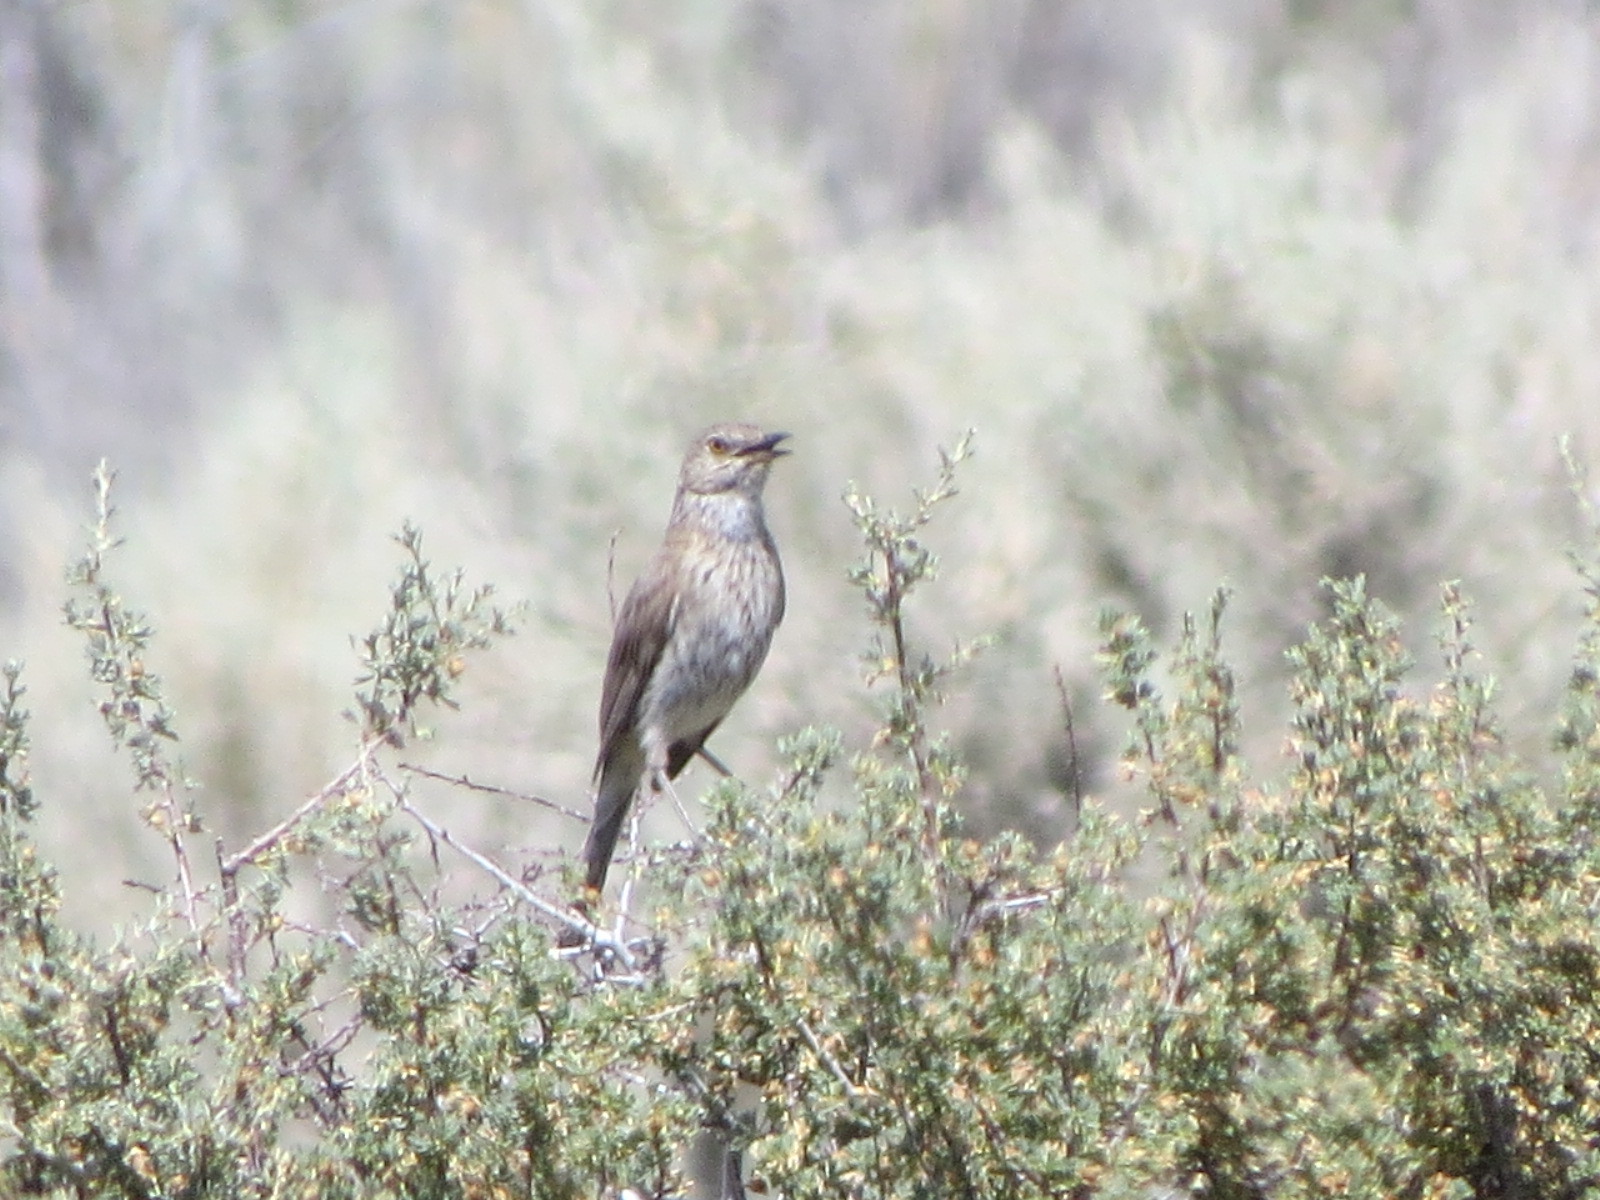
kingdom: Animalia
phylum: Chordata
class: Aves
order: Passeriformes
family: Mimidae
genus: Oreoscoptes
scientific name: Oreoscoptes montanus
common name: Sage thrasher
